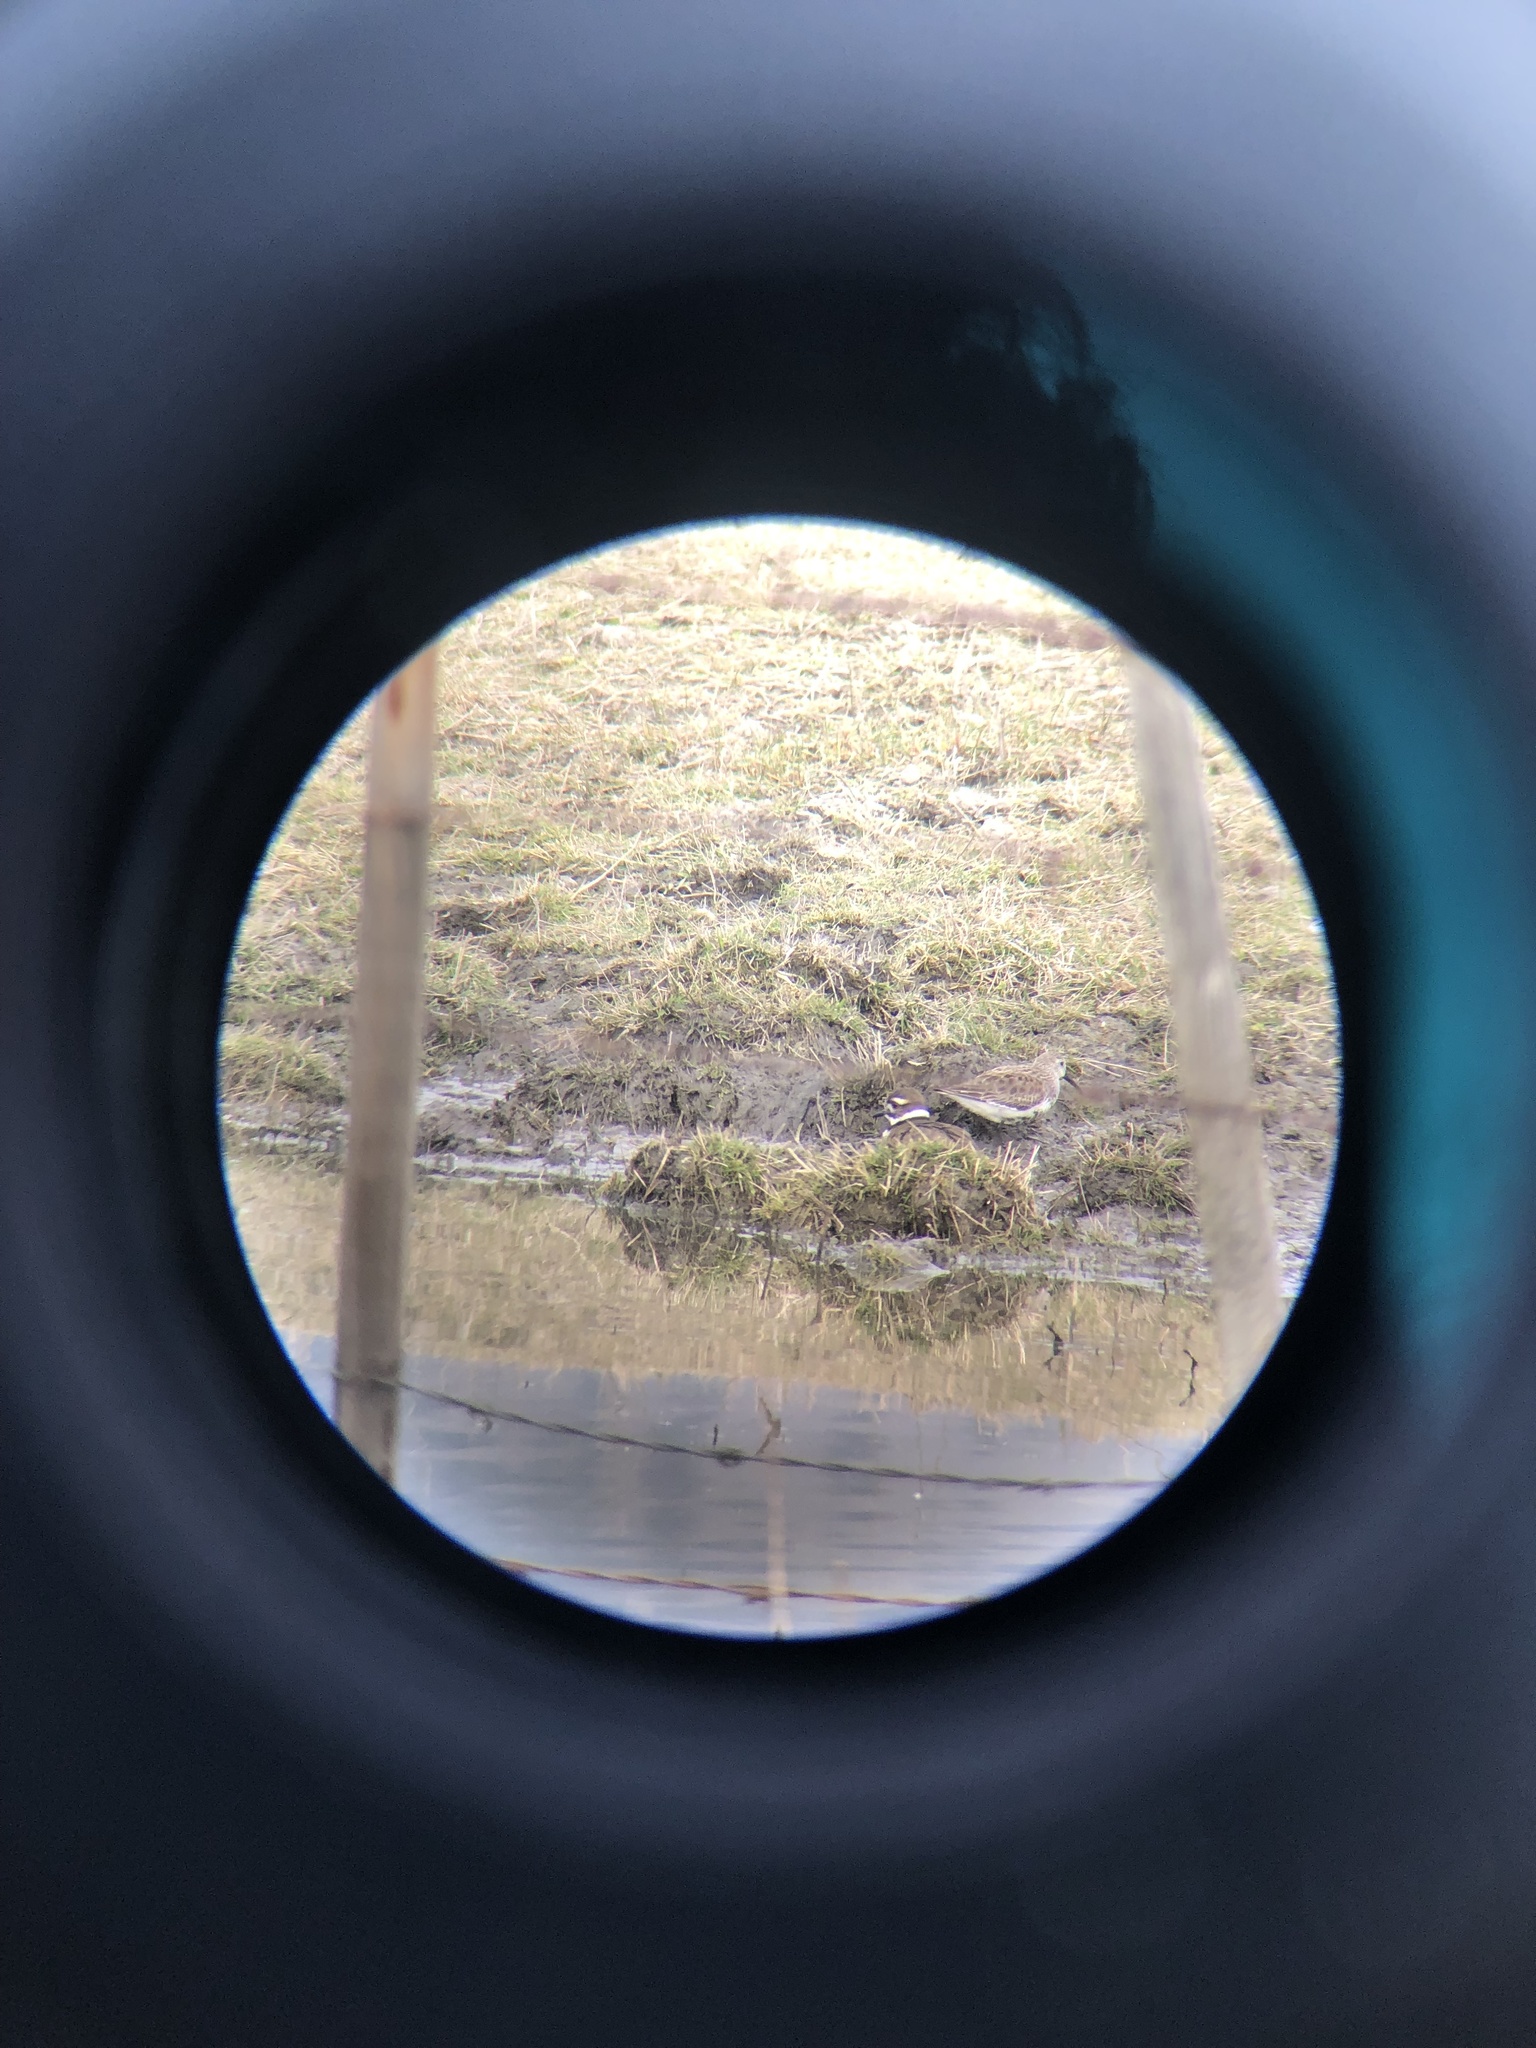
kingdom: Animalia
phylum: Chordata
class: Aves
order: Charadriiformes
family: Charadriidae
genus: Charadrius
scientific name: Charadrius vociferus
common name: Killdeer
